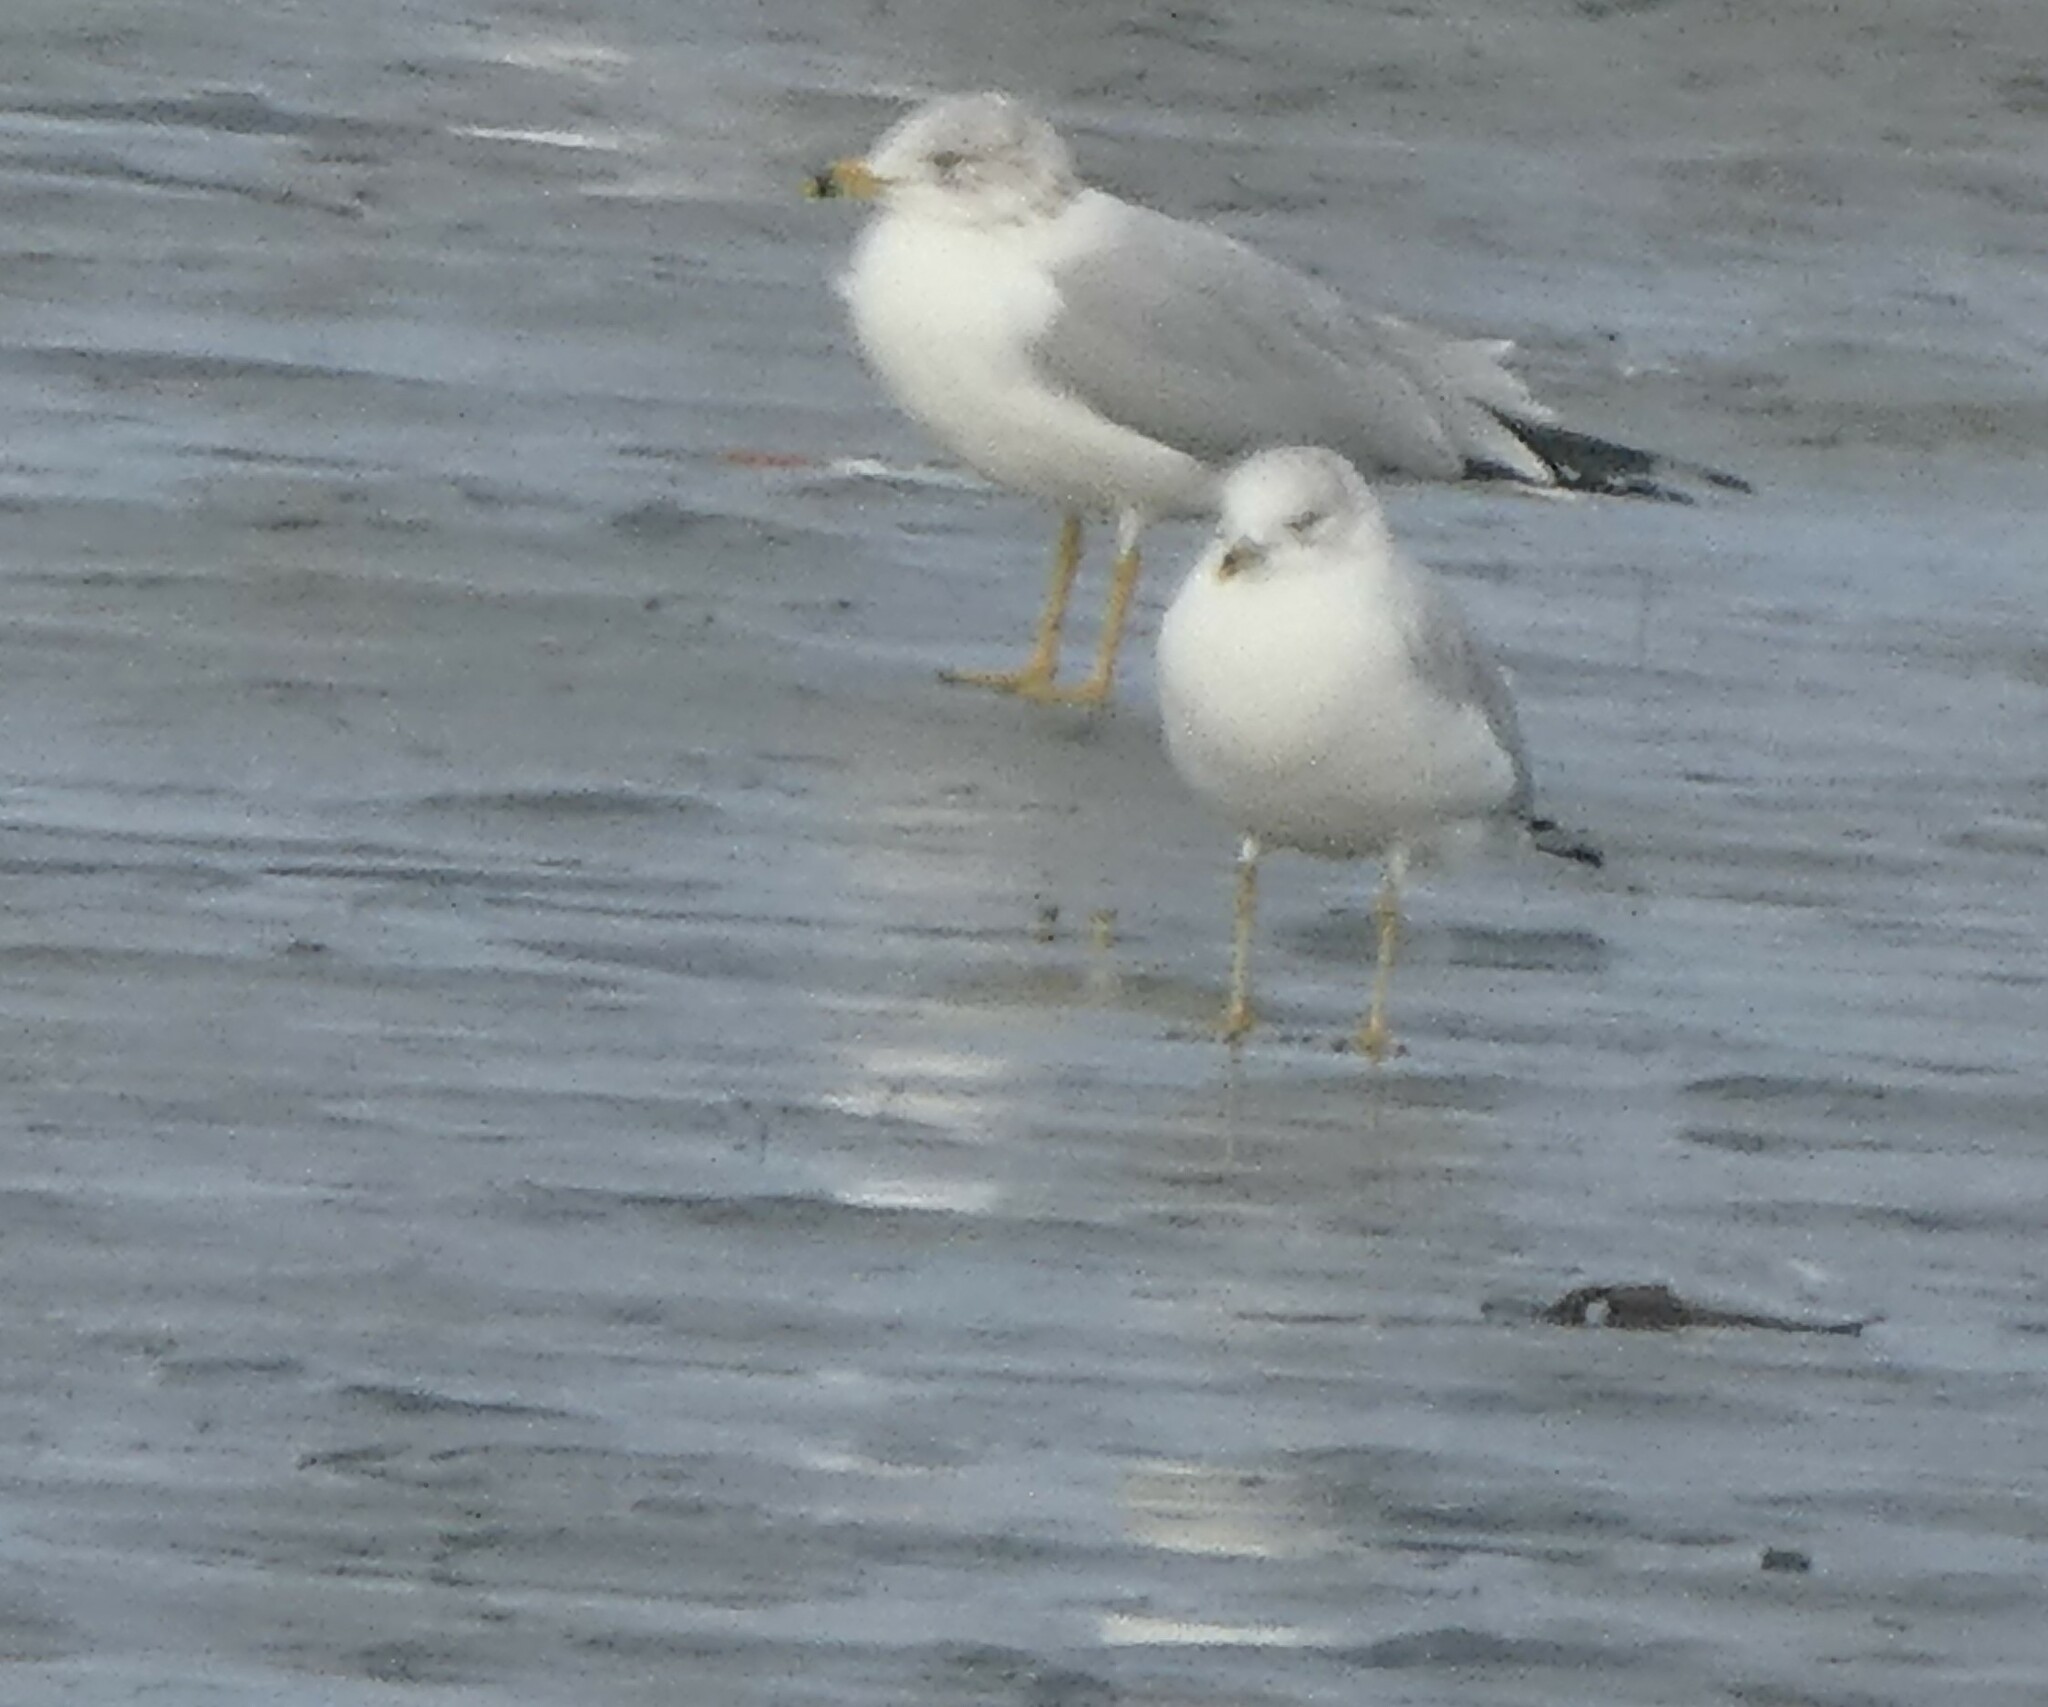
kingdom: Animalia
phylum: Chordata
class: Aves
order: Charadriiformes
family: Laridae
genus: Larus
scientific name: Larus delawarensis
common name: Ring-billed gull
